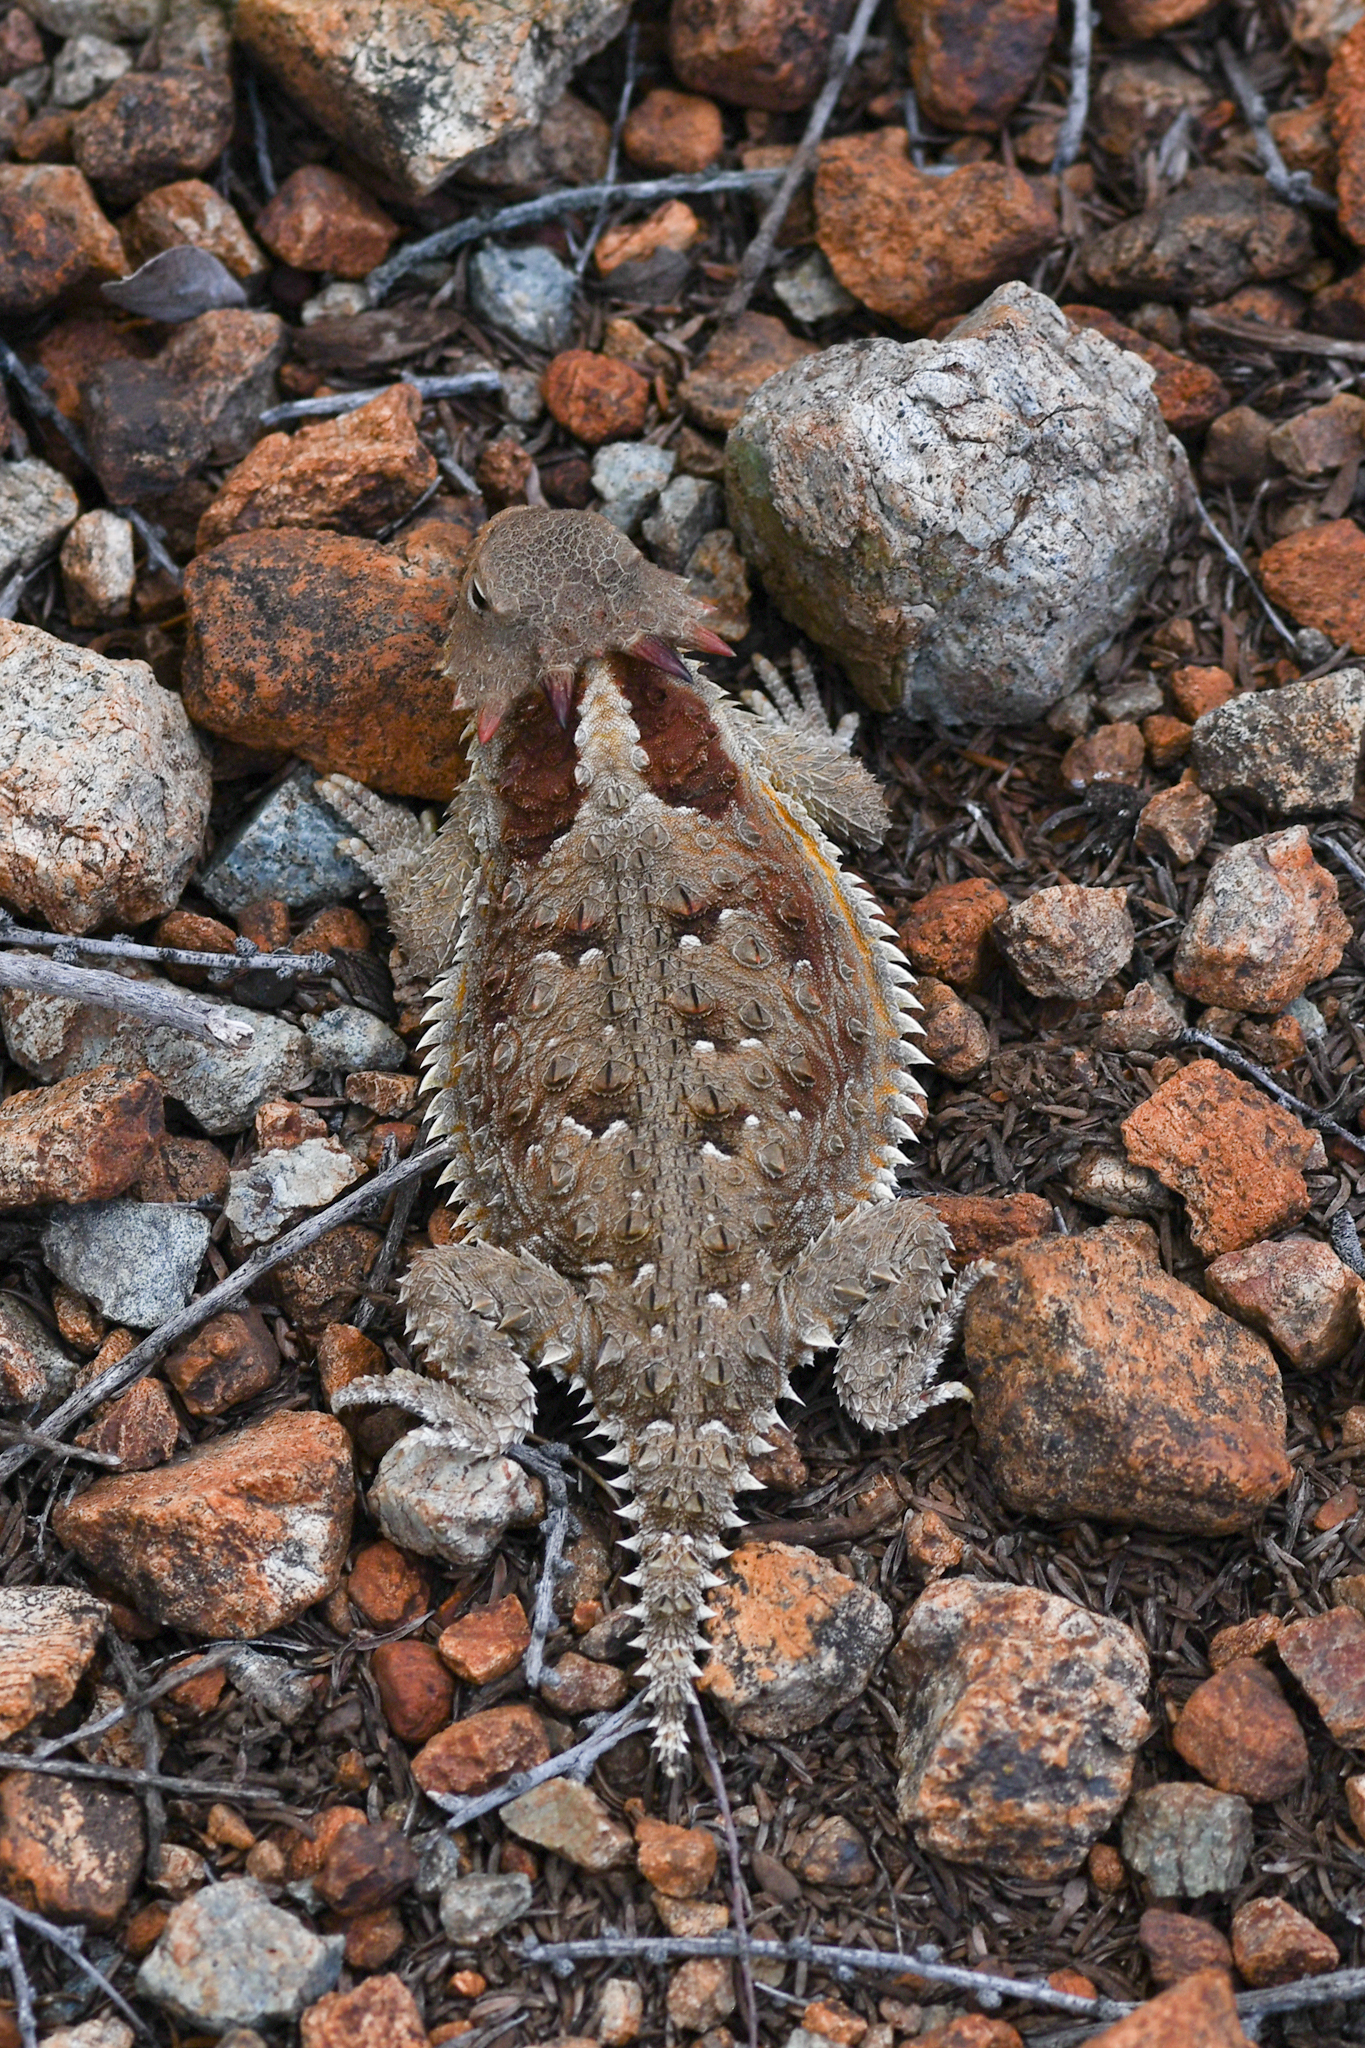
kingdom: Animalia
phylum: Chordata
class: Squamata
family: Phrynosomatidae
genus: Phrynosoma
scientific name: Phrynosoma blainvillii
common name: San diego horned lizard
